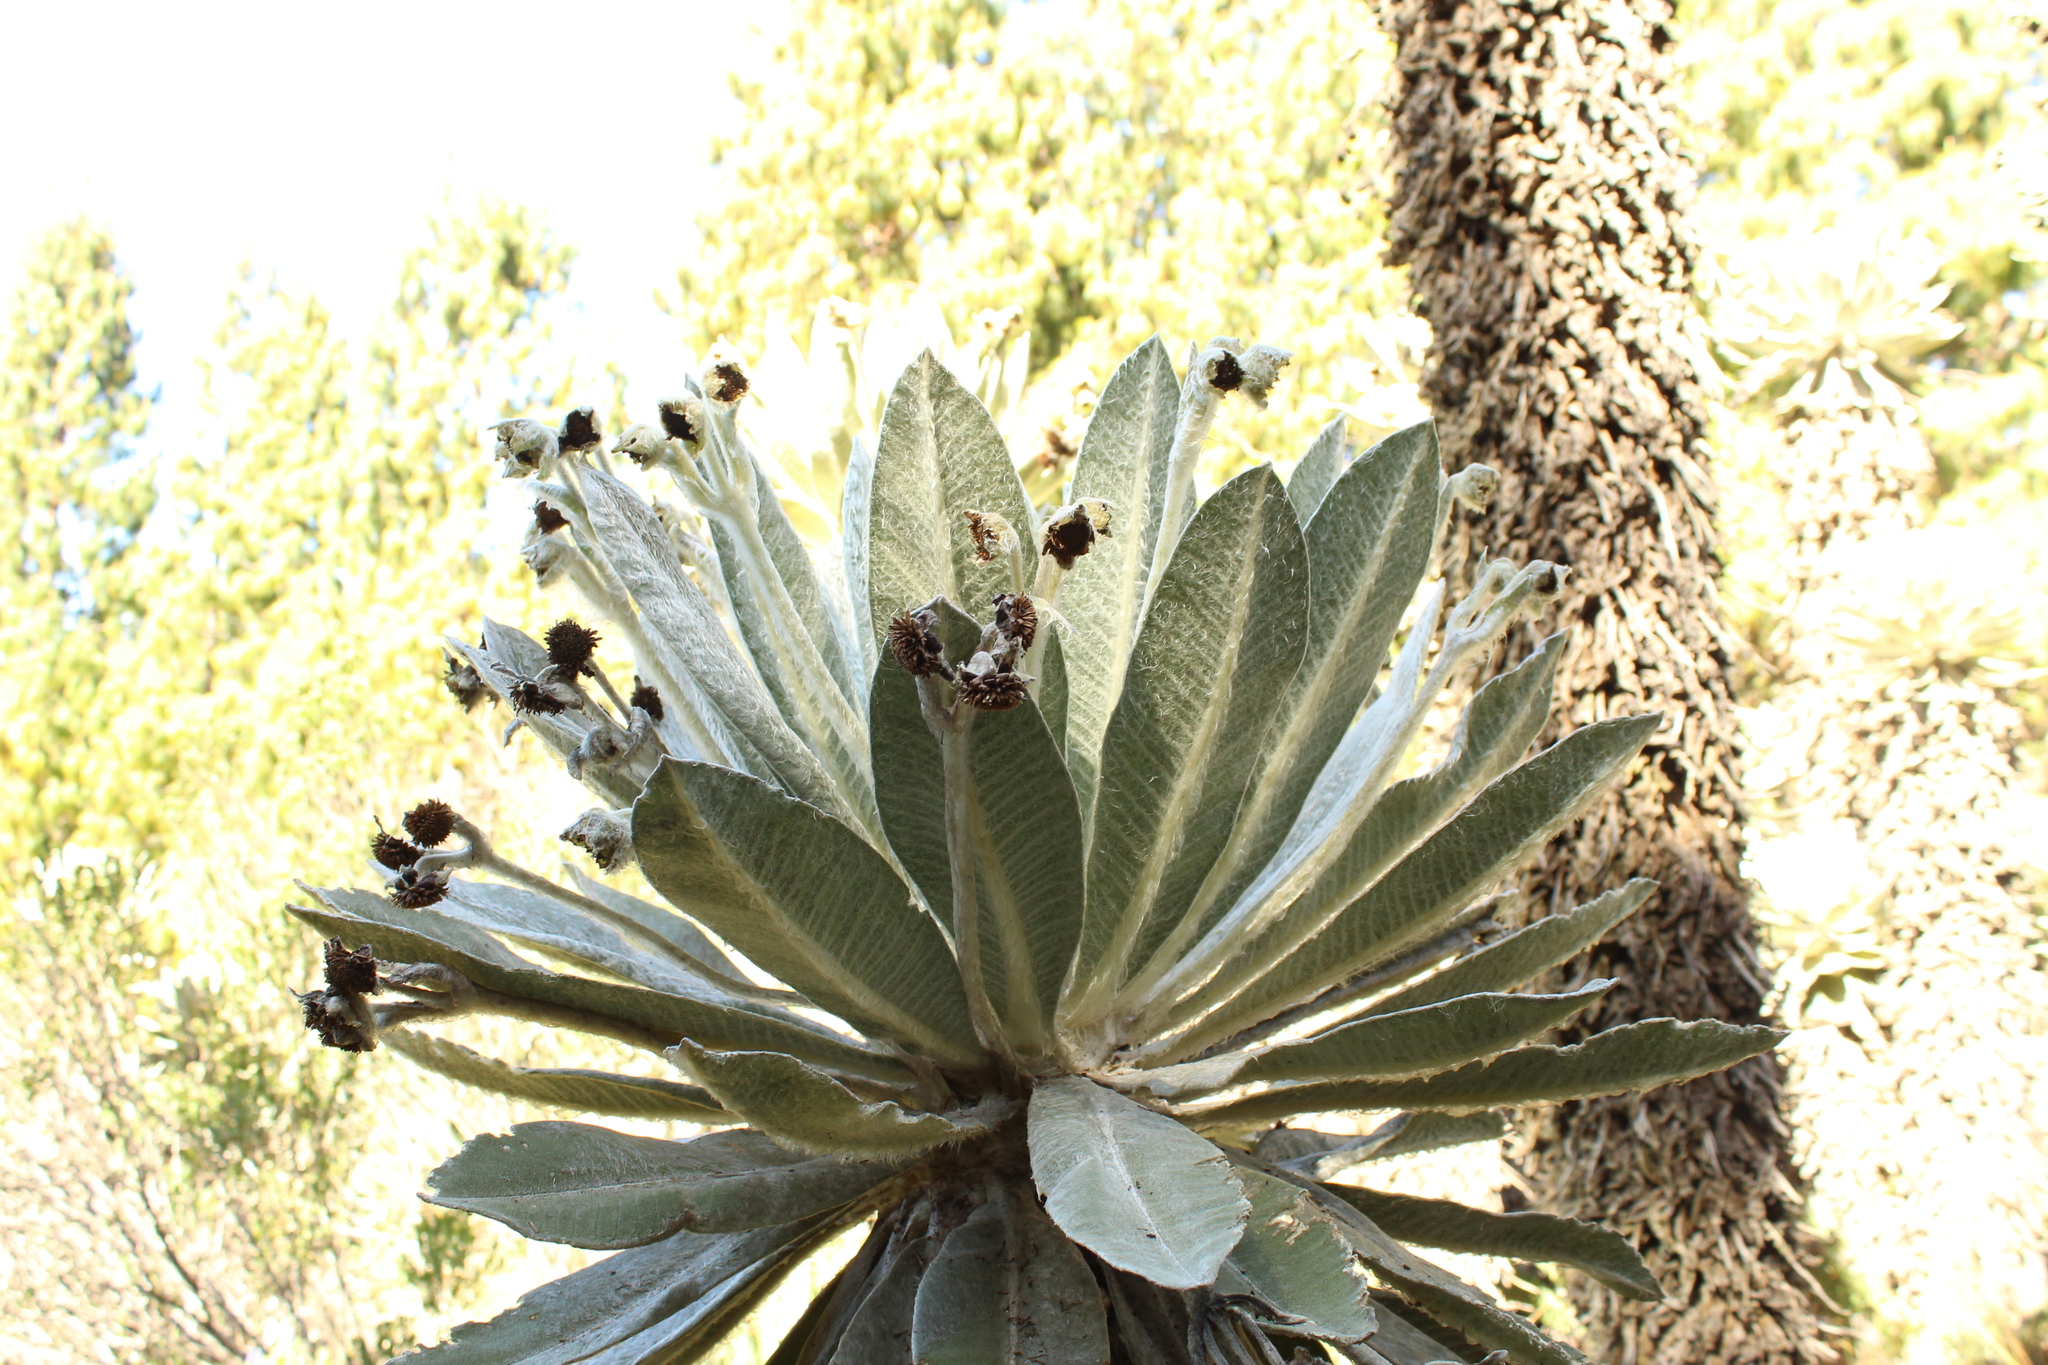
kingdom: Plantae
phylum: Tracheophyta
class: Magnoliopsida
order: Asterales
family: Asteraceae
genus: Espeletia
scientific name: Espeletia incana
